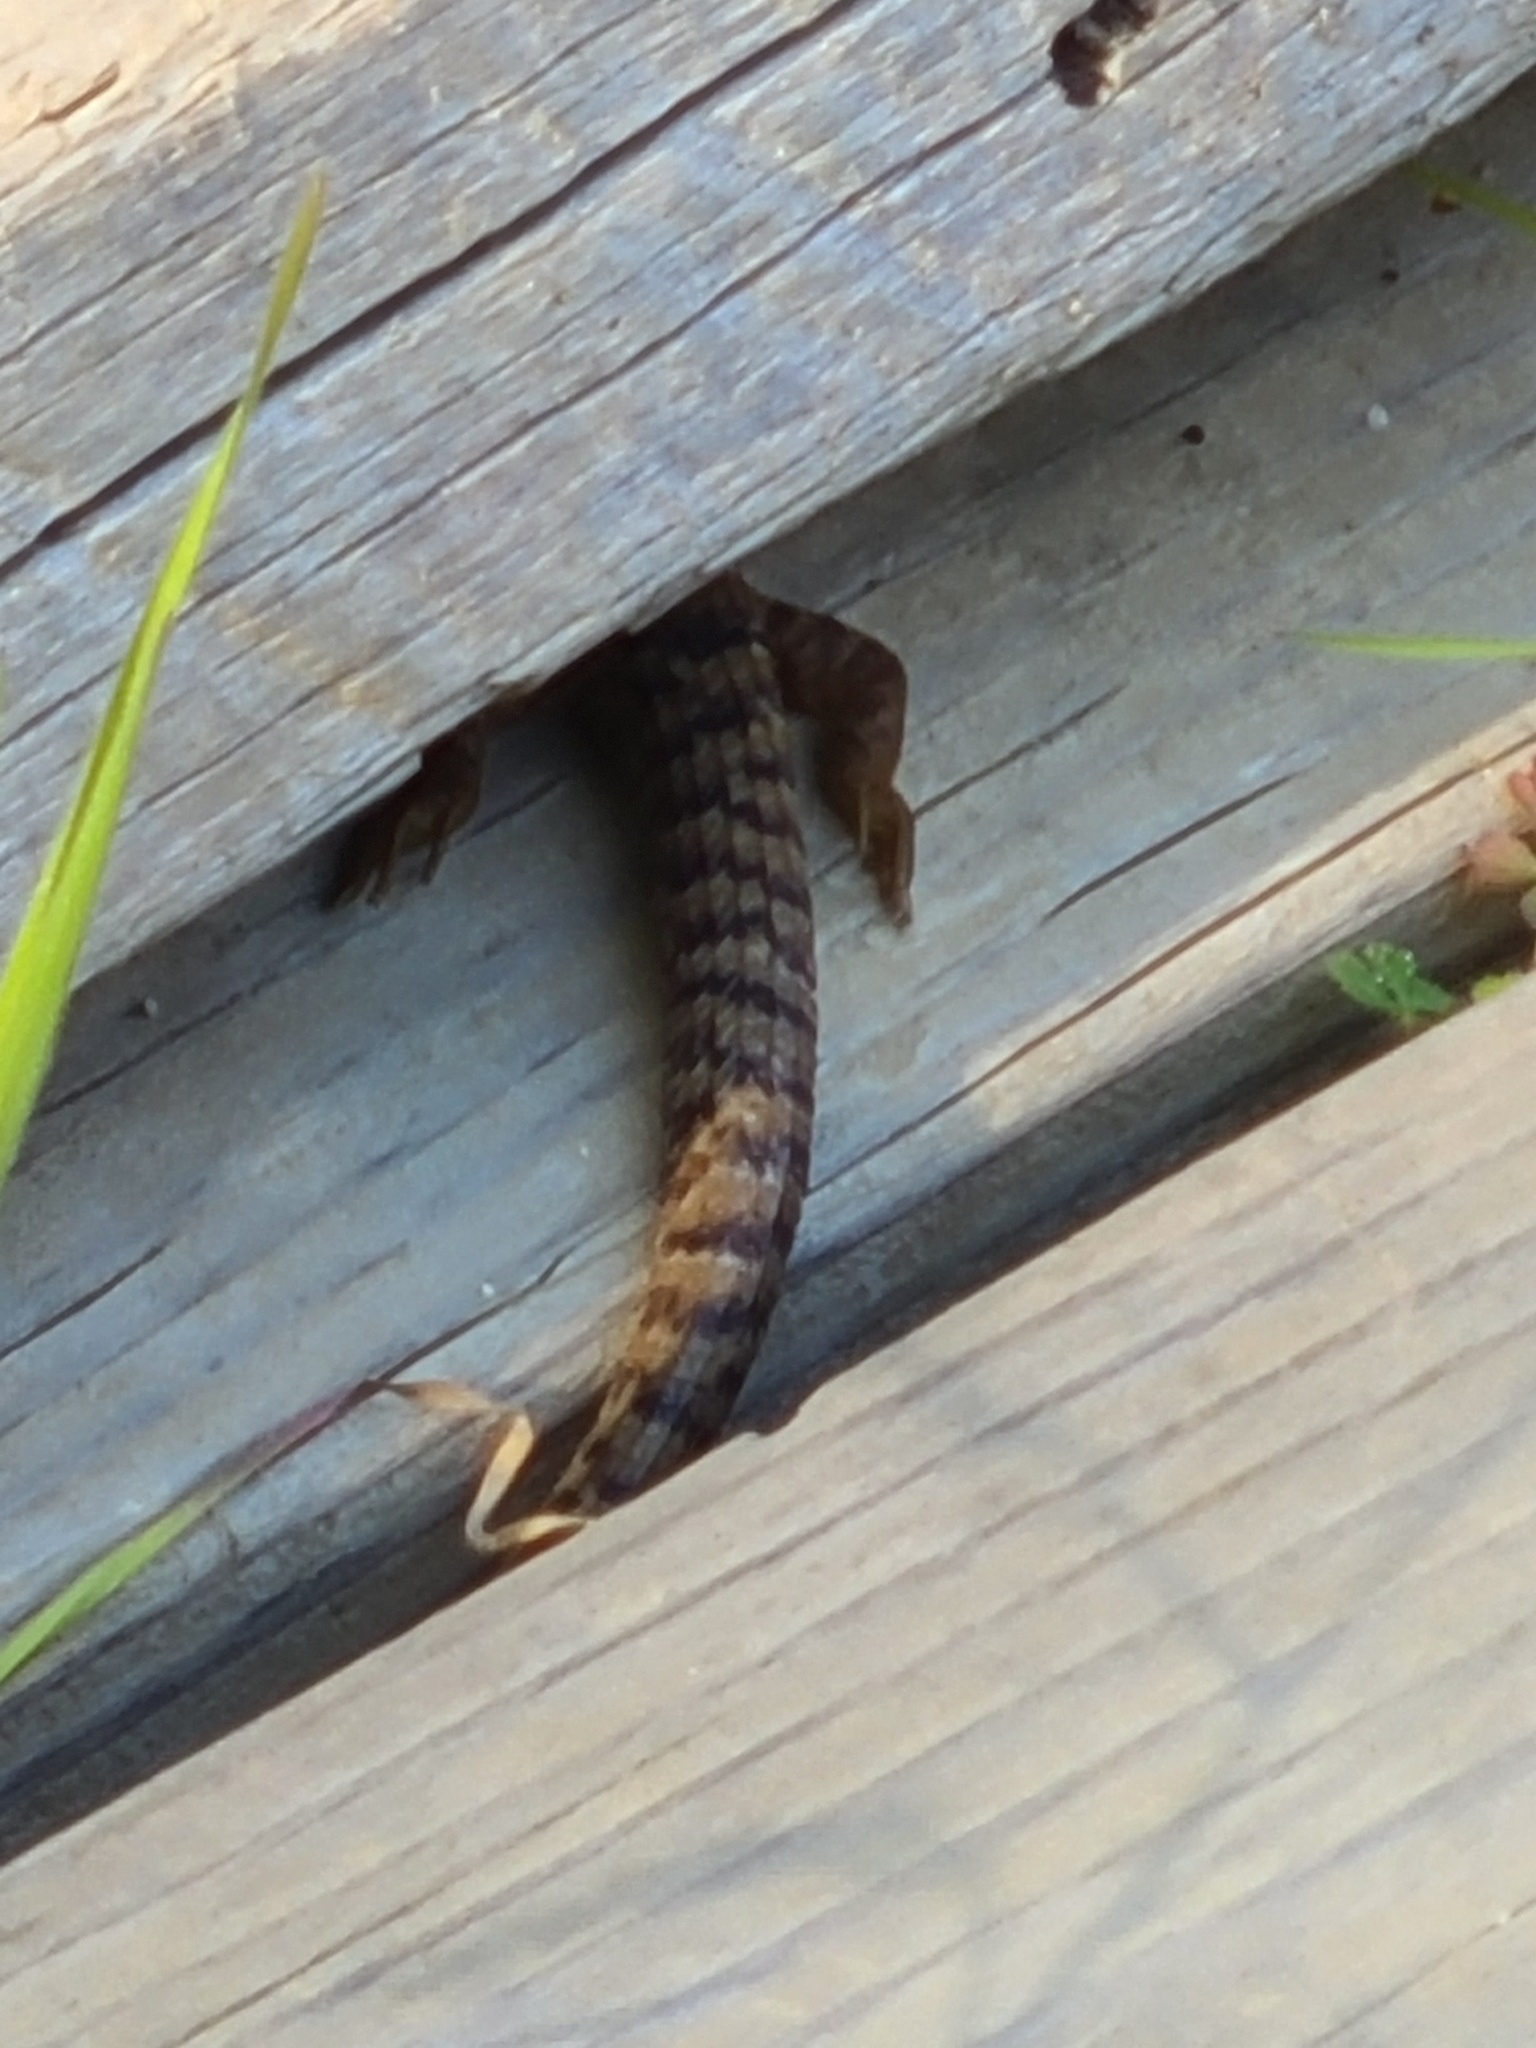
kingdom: Animalia
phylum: Chordata
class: Squamata
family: Anguidae
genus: Elgaria
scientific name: Elgaria multicarinata
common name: Southern alligator lizard
